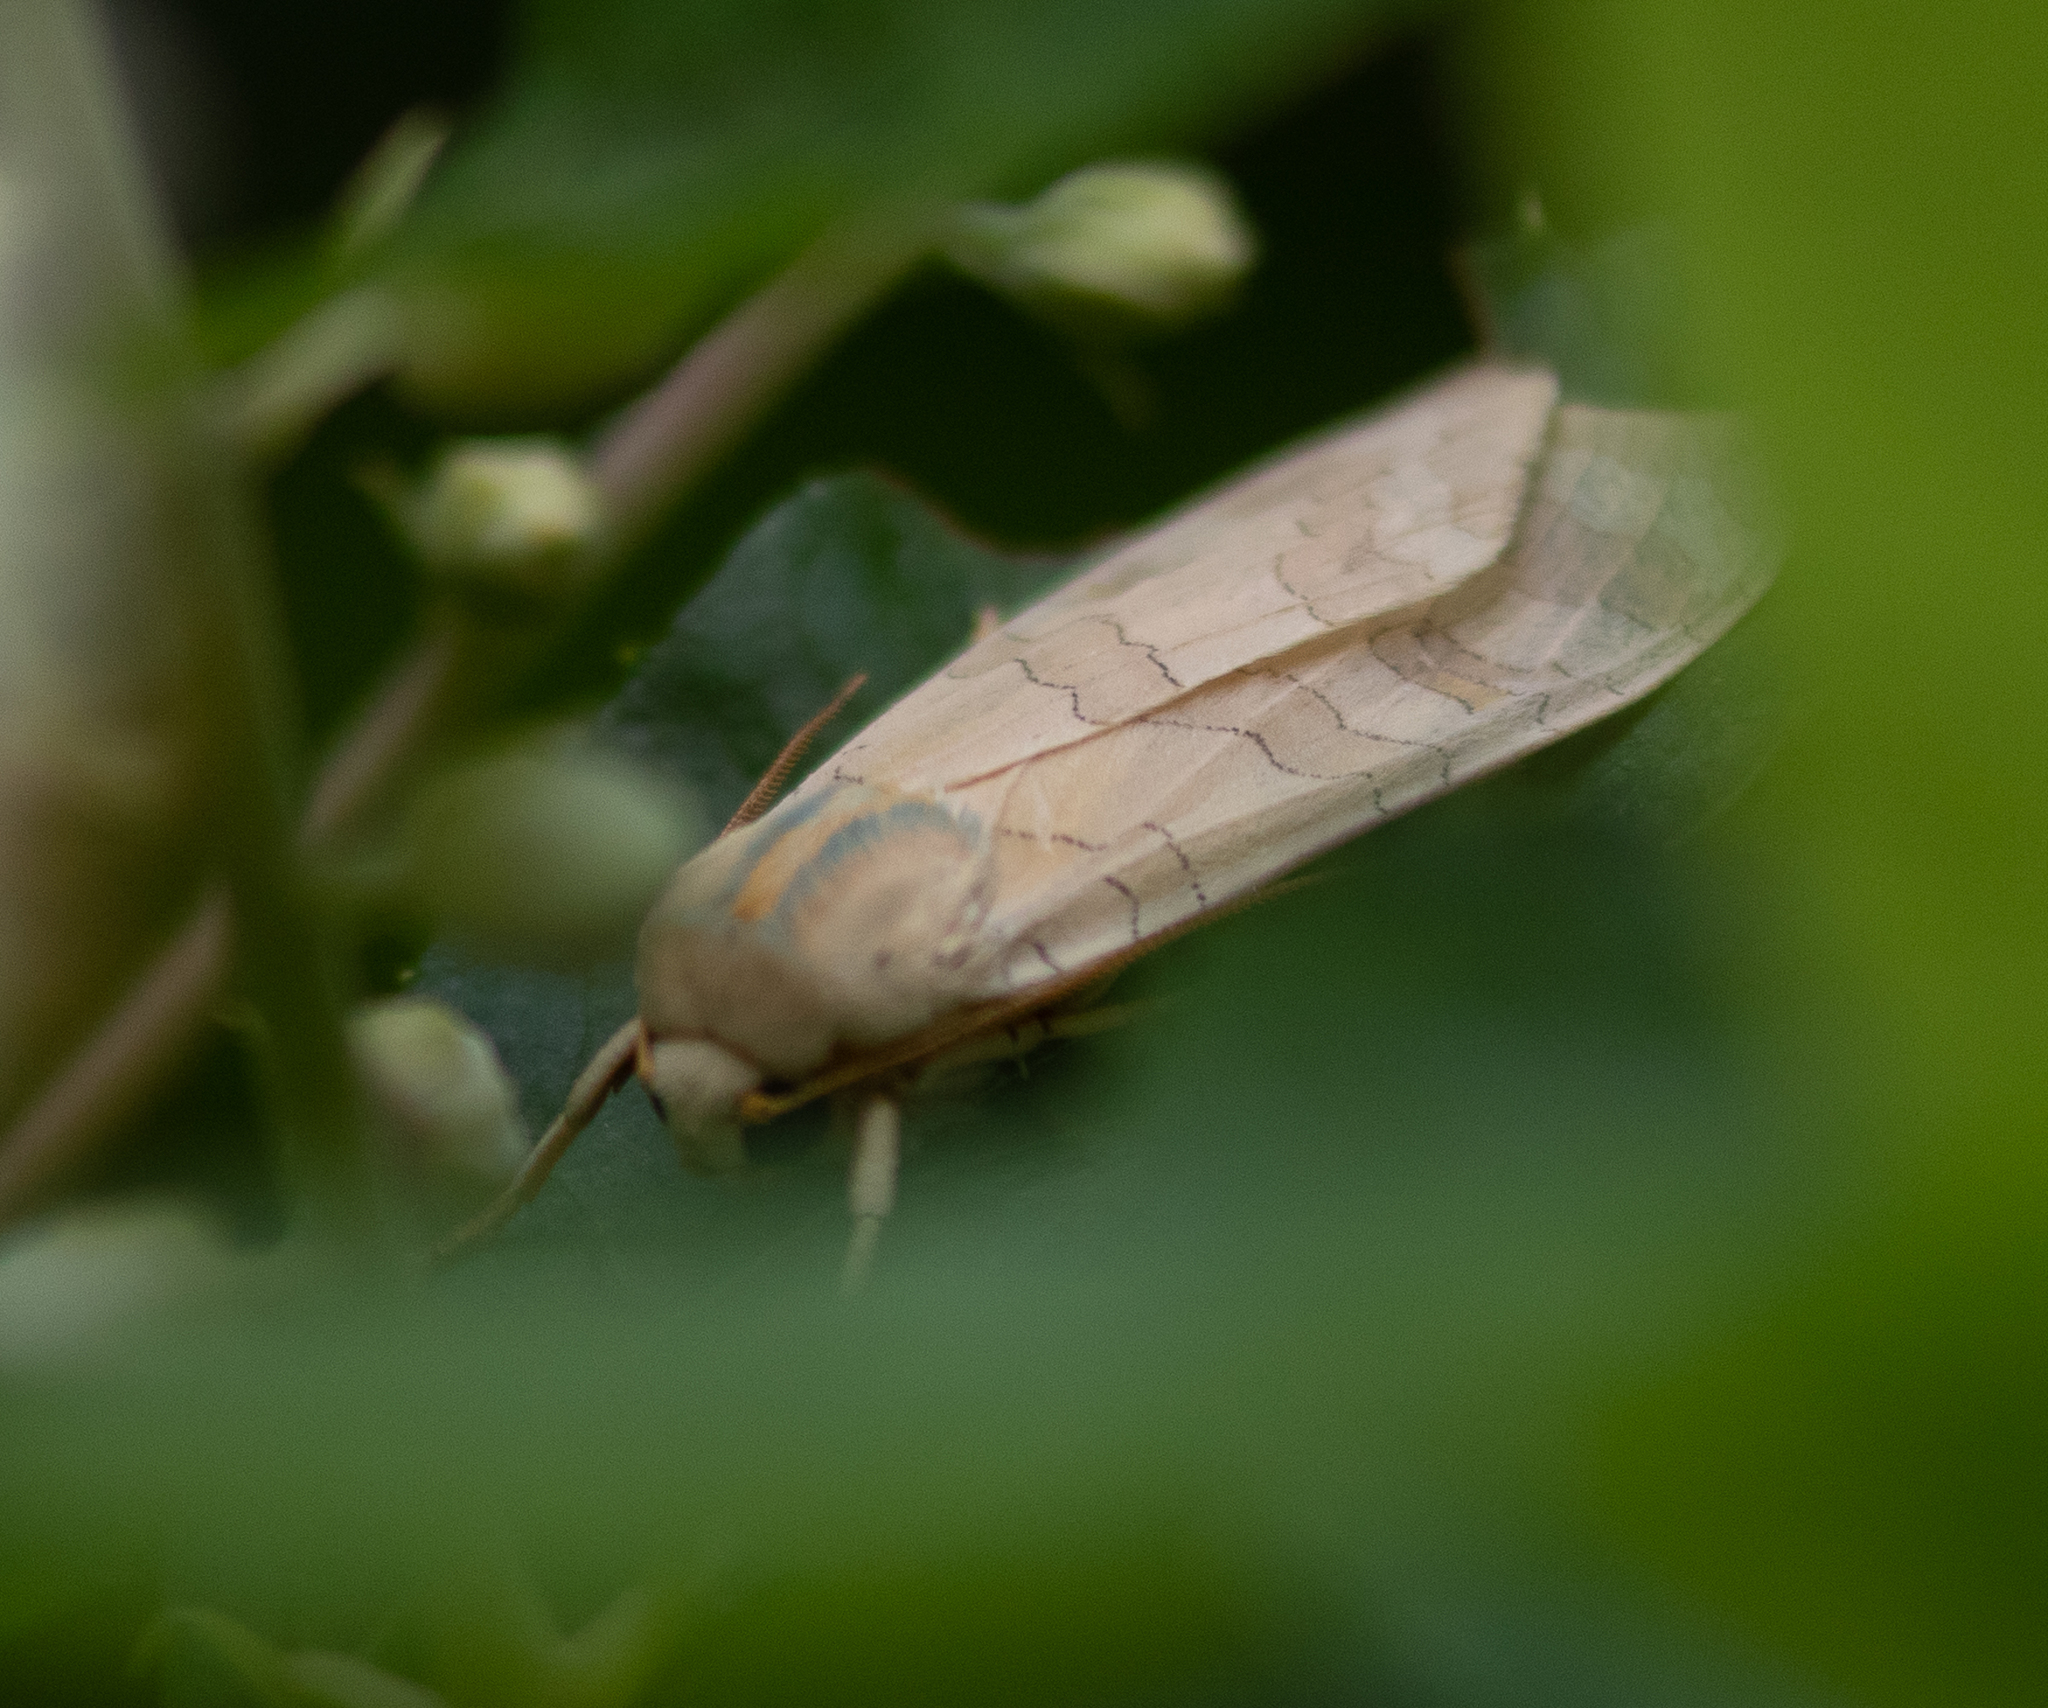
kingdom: Animalia
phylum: Arthropoda
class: Insecta
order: Lepidoptera
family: Erebidae
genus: Halysidota
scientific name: Halysidota
